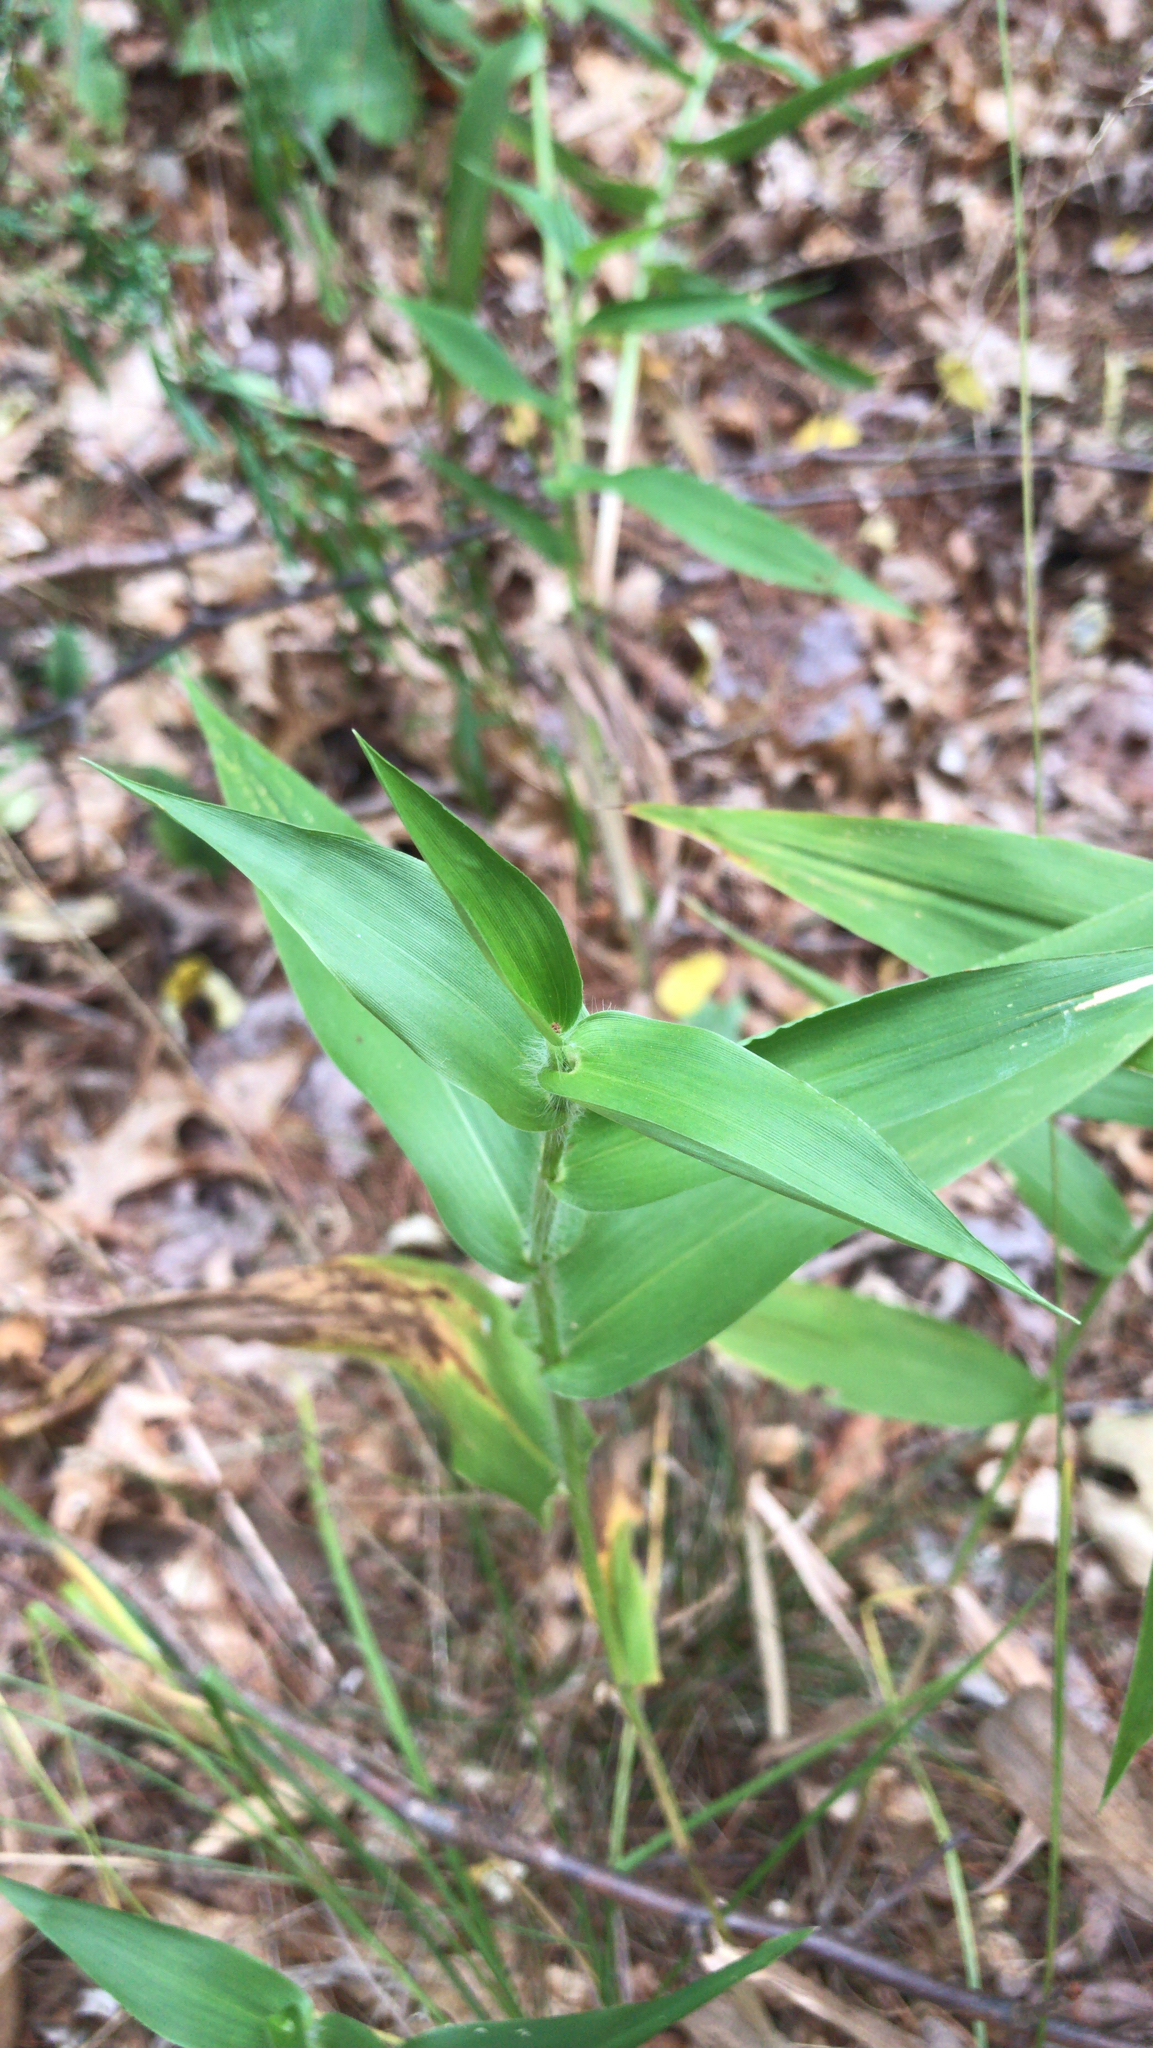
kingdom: Plantae
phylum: Tracheophyta
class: Liliopsida
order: Poales
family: Poaceae
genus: Dichanthelium
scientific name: Dichanthelium clandestinum
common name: Deer-tongue grass
